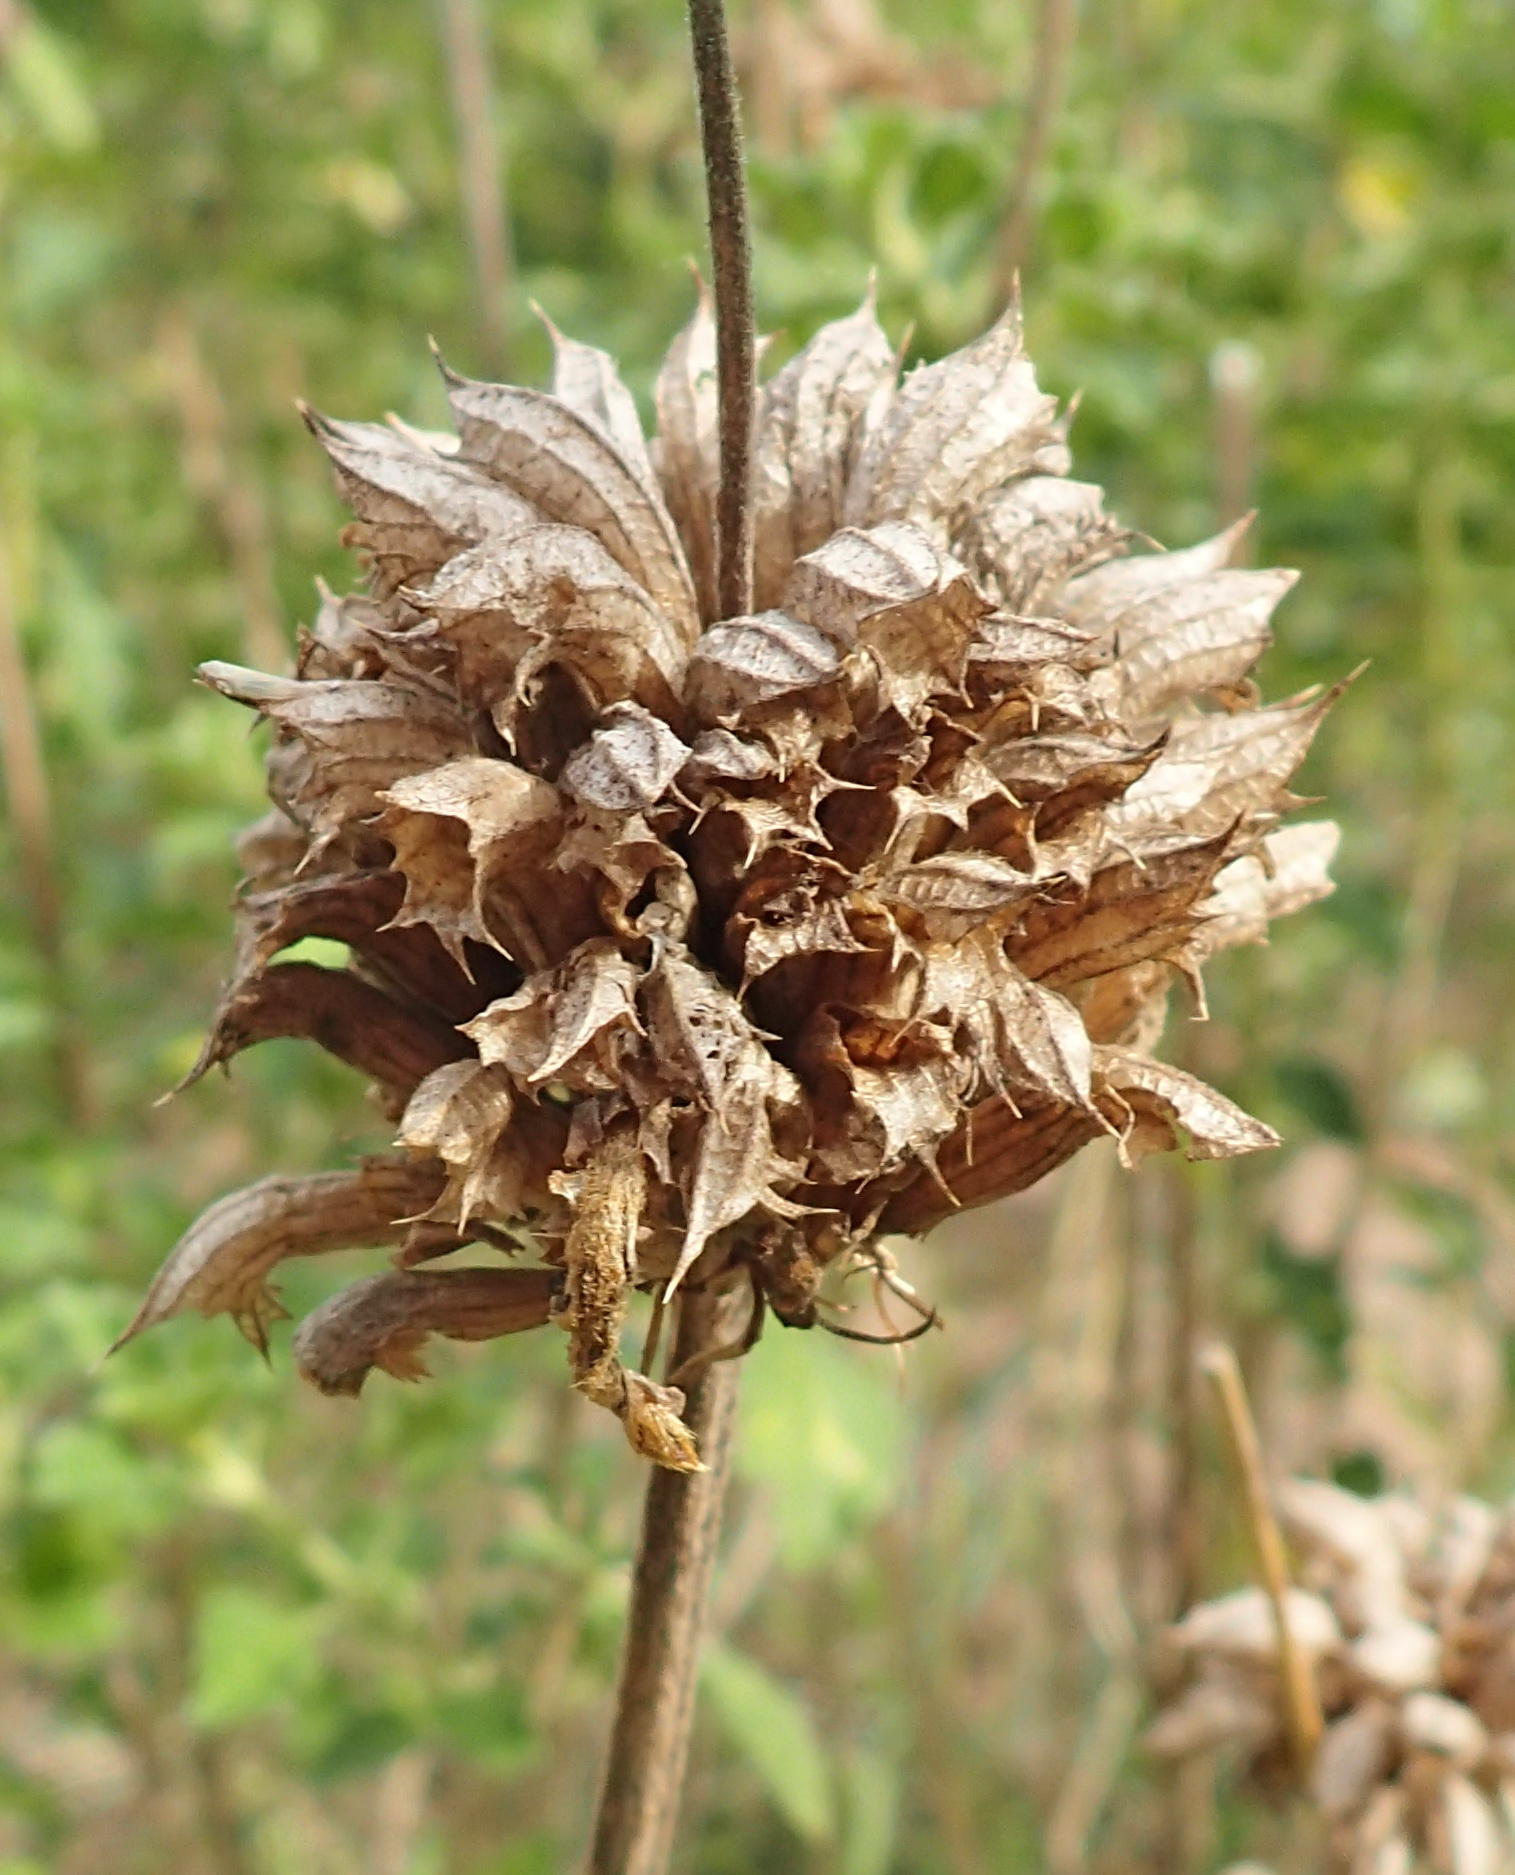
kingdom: Plantae
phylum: Tracheophyta
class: Magnoliopsida
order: Lamiales
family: Lamiaceae
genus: Leonotis
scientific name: Leonotis ocymifolia
